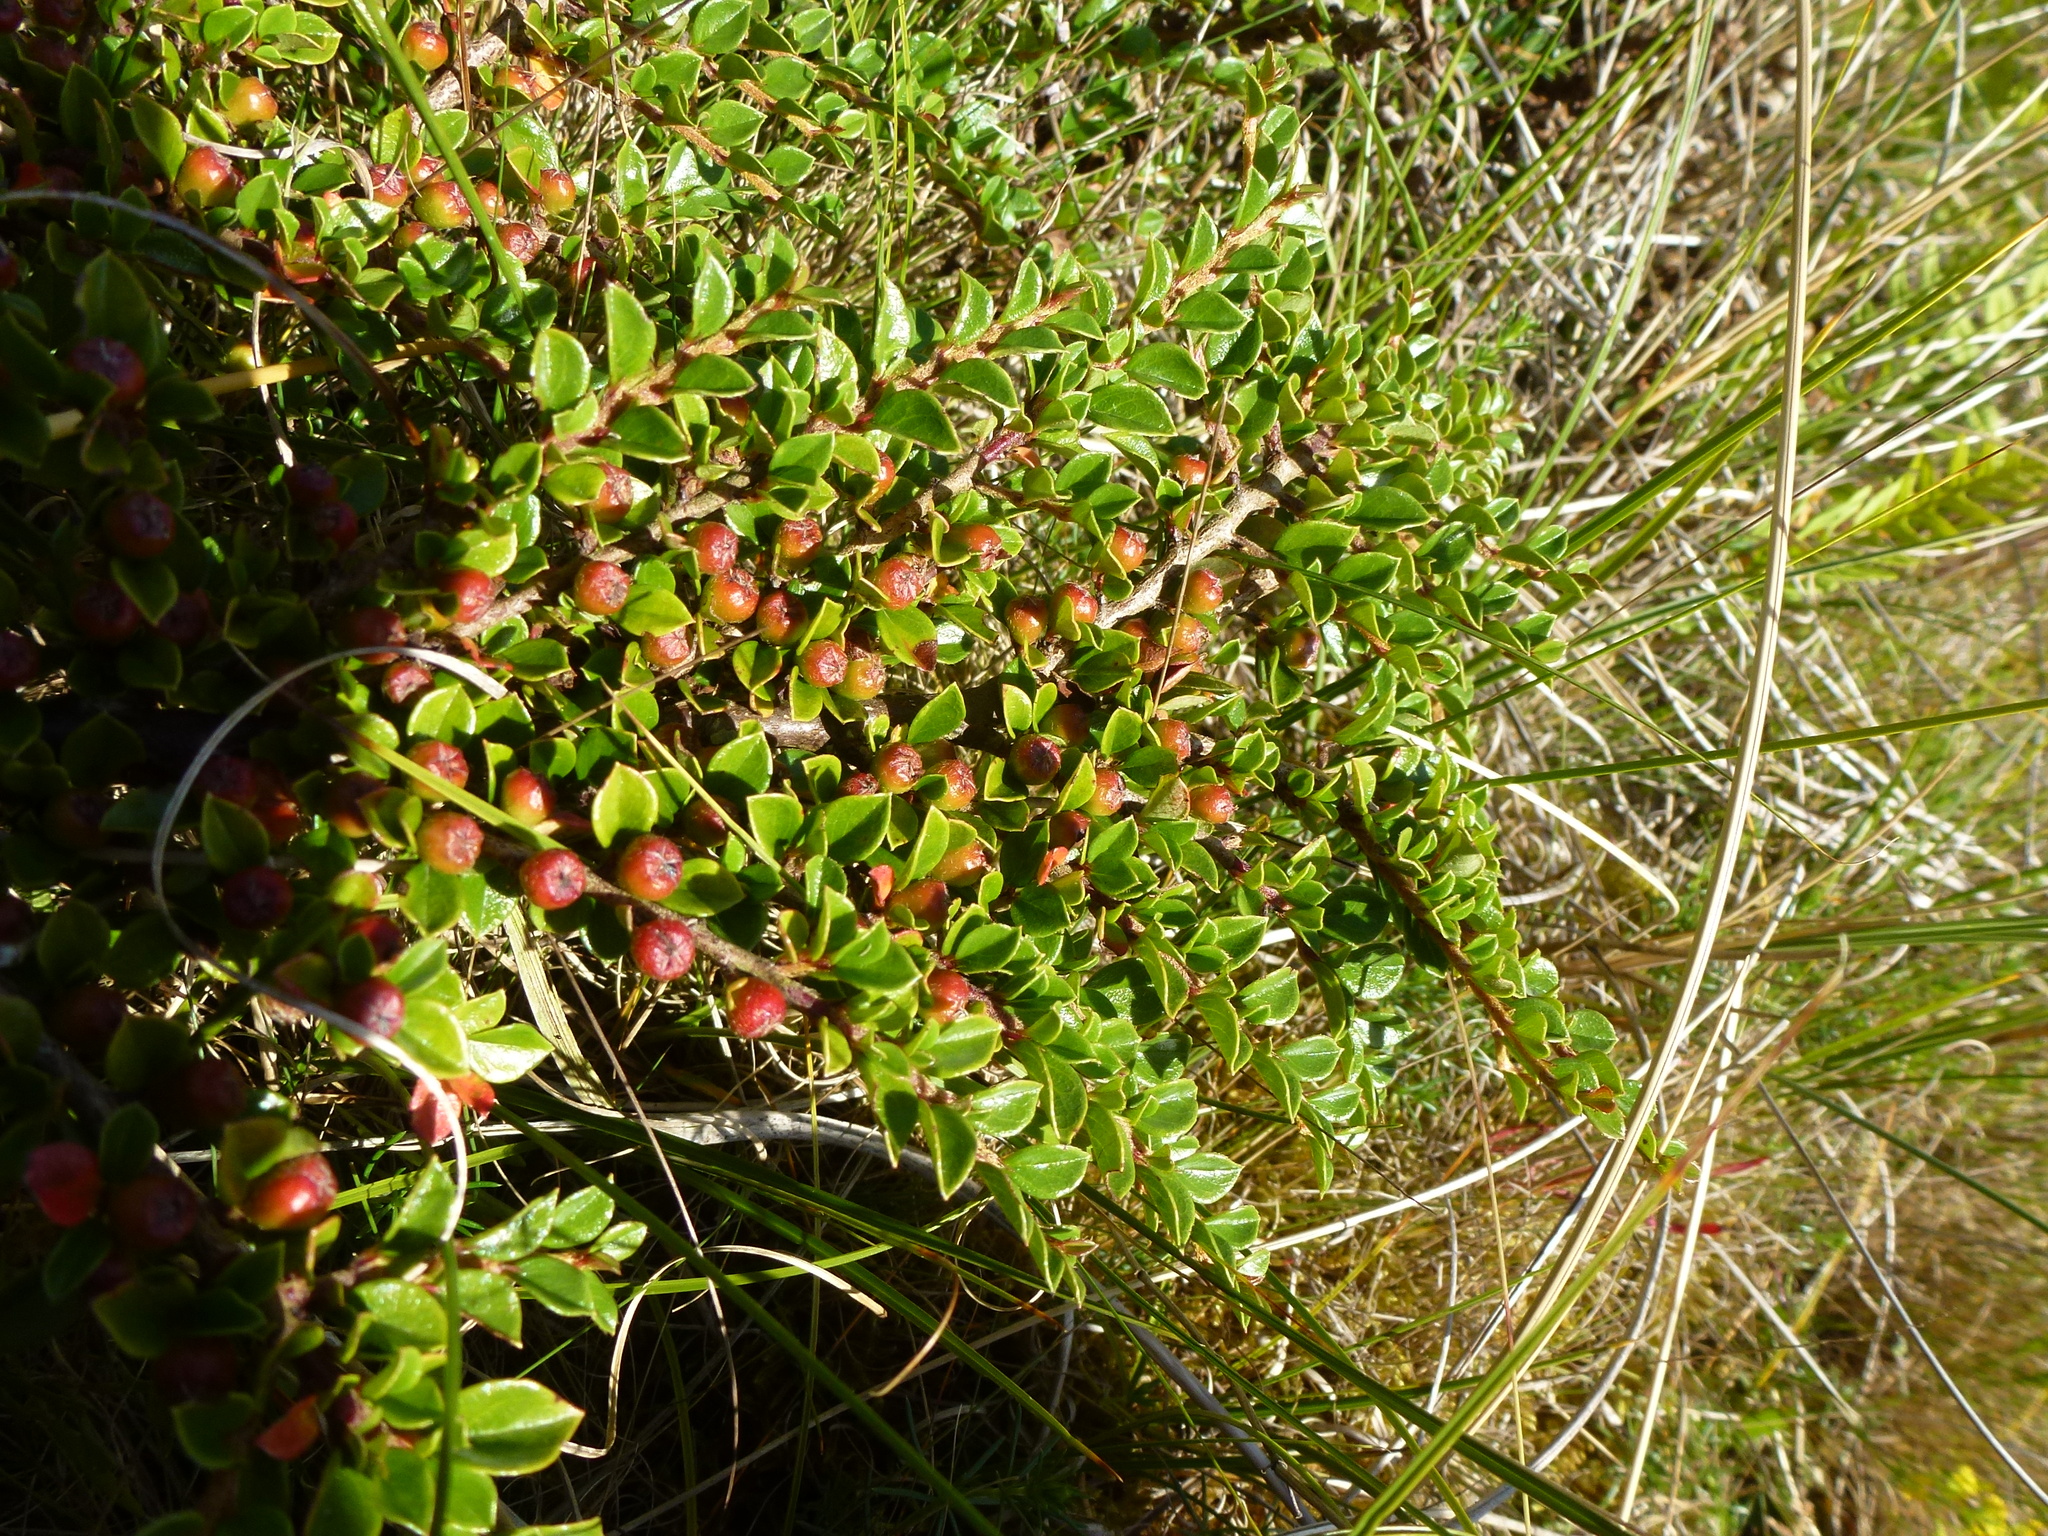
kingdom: Plantae
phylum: Tracheophyta
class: Magnoliopsida
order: Rosales
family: Rosaceae
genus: Cotoneaster
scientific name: Cotoneaster horizontalis
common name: Wall cotoneaster
